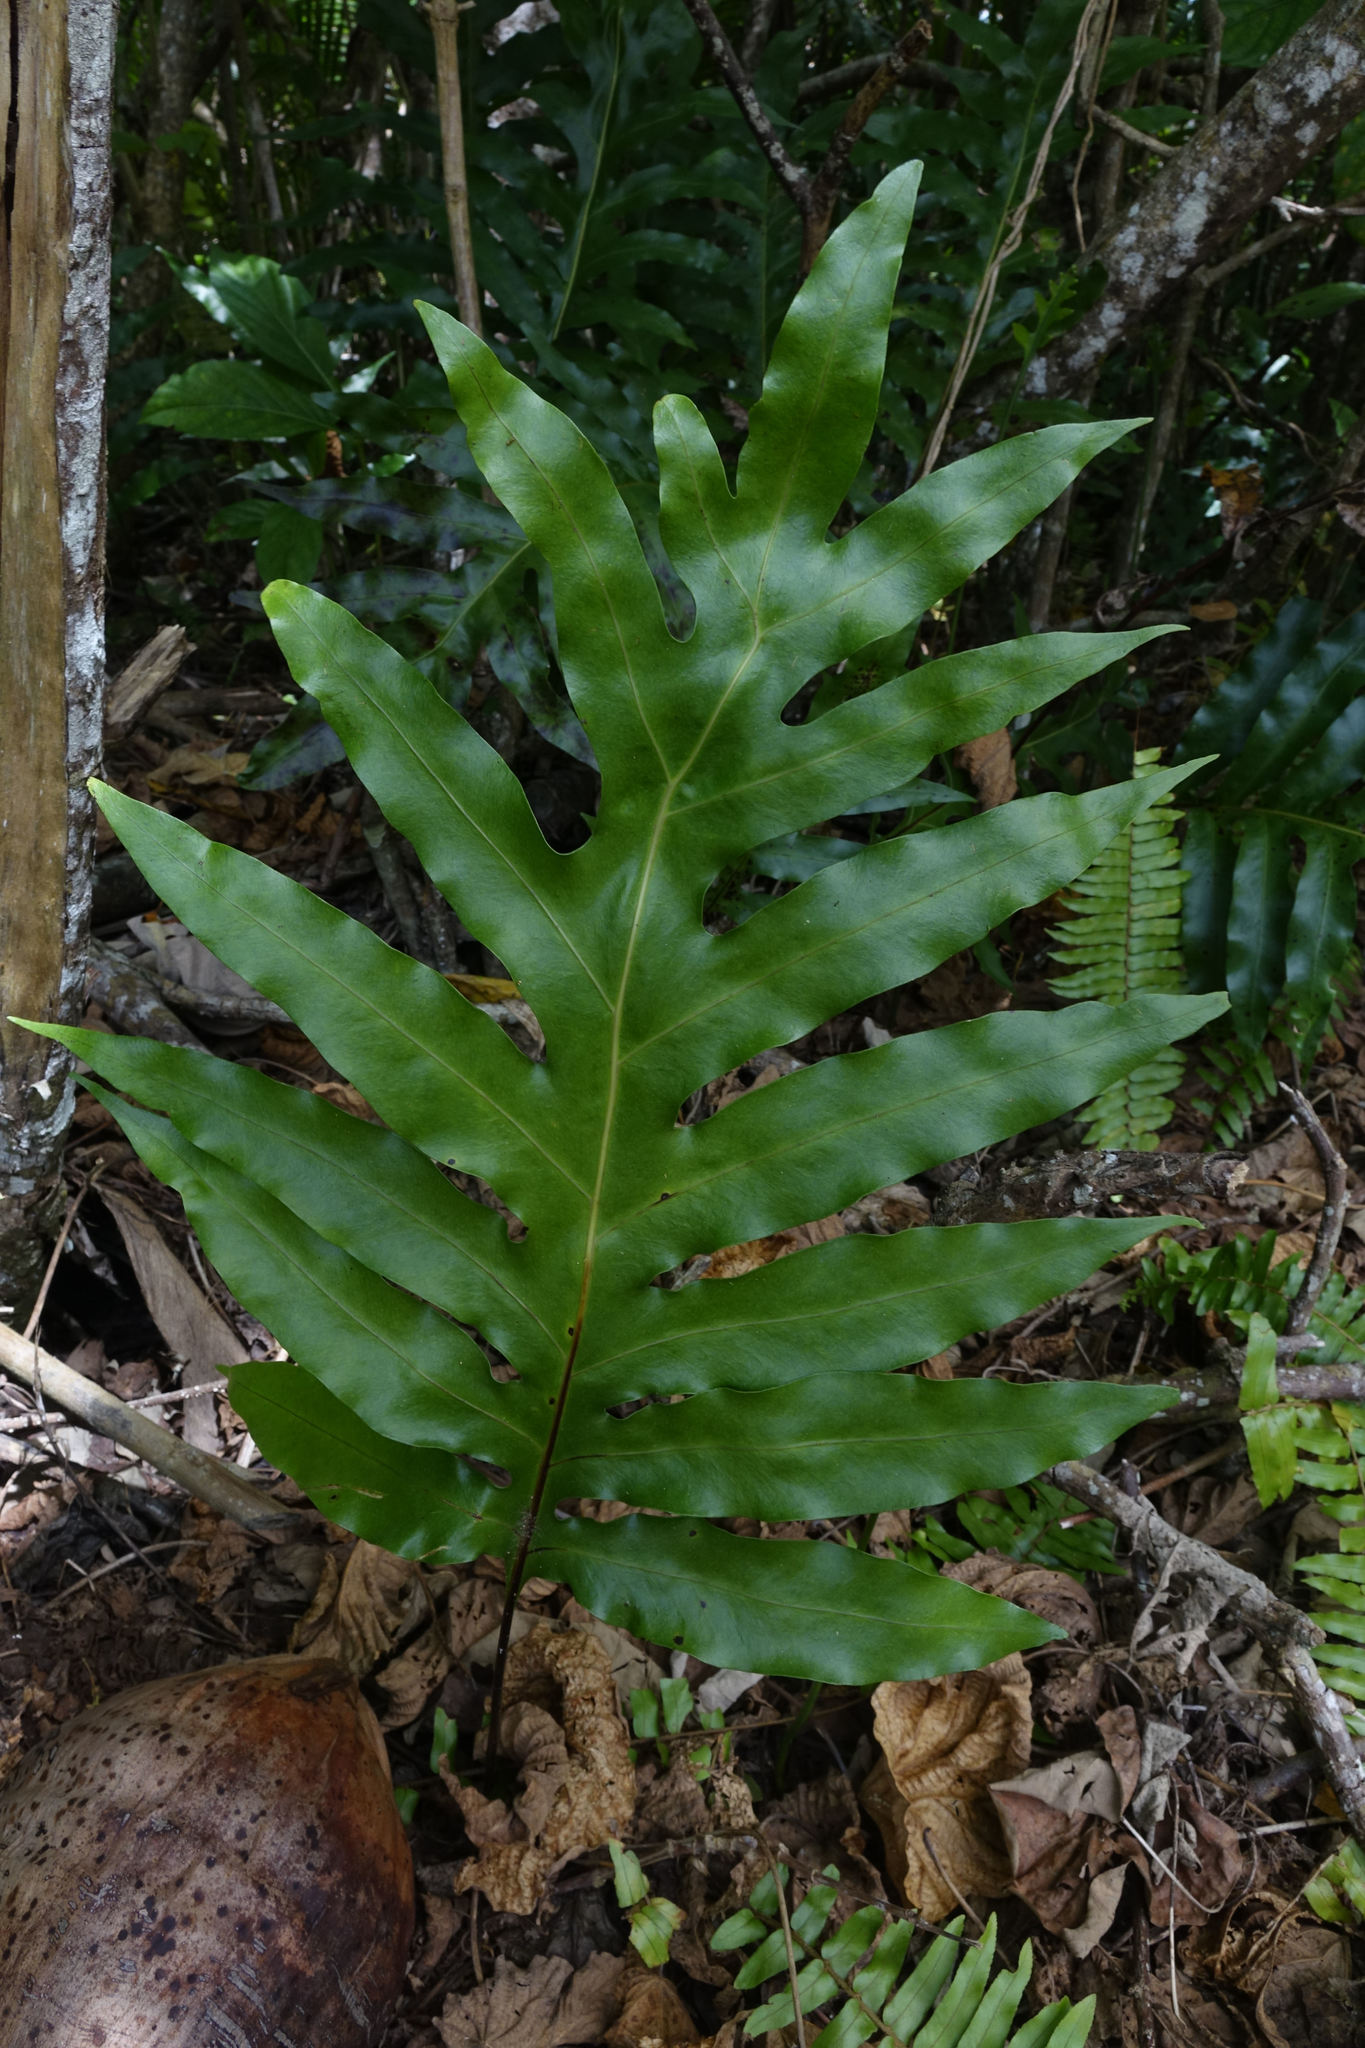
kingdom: Plantae
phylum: Tracheophyta
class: Polypodiopsida
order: Polypodiales
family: Polypodiaceae
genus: Microsorum
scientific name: Microsorum scolopendria
